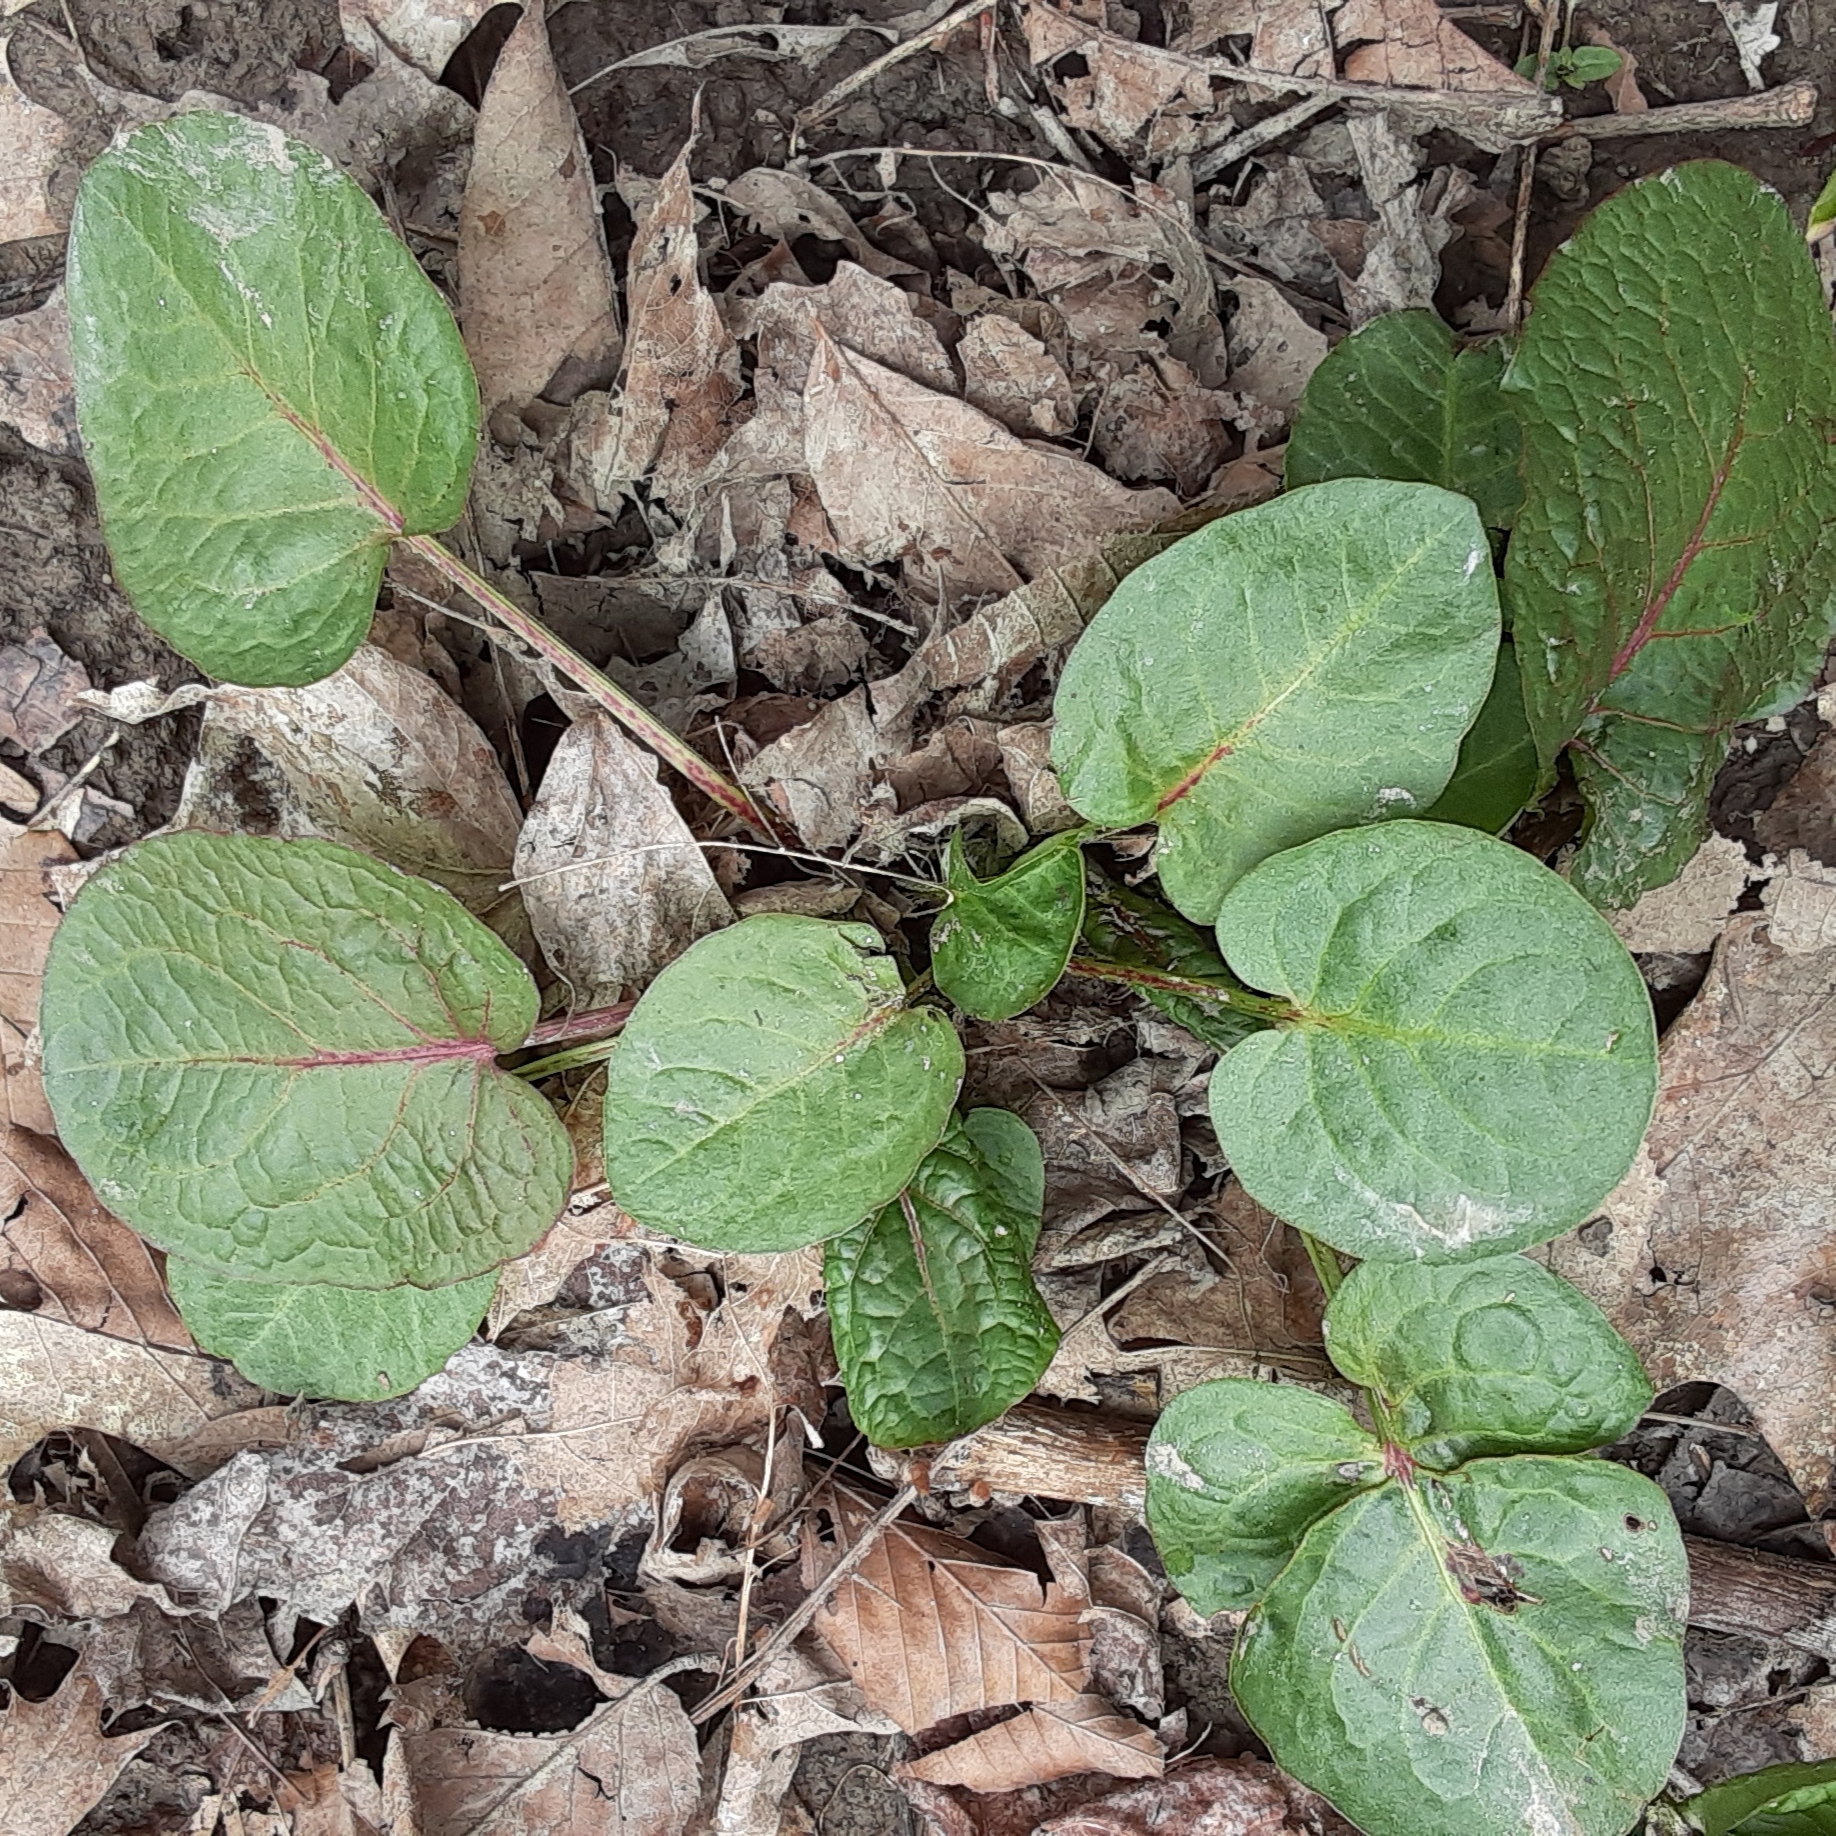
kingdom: Plantae
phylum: Tracheophyta
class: Magnoliopsida
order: Caryophyllales
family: Polygonaceae
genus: Rumex
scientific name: Rumex obtusifolius
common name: Bitter dock
